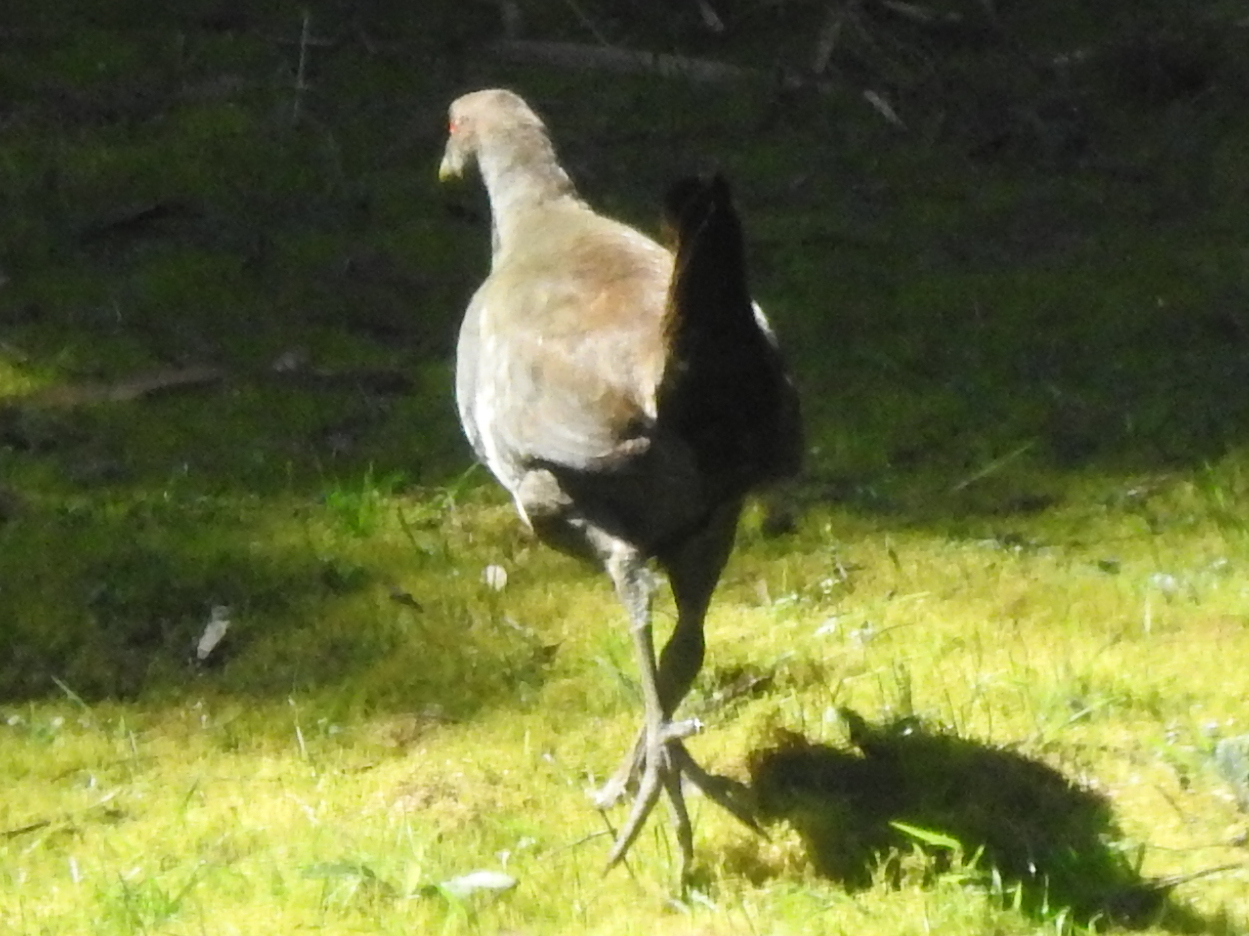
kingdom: Animalia
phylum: Chordata
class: Aves
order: Gruiformes
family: Rallidae
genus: Gallinula
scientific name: Gallinula mortierii
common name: Tasmanian nativehen
